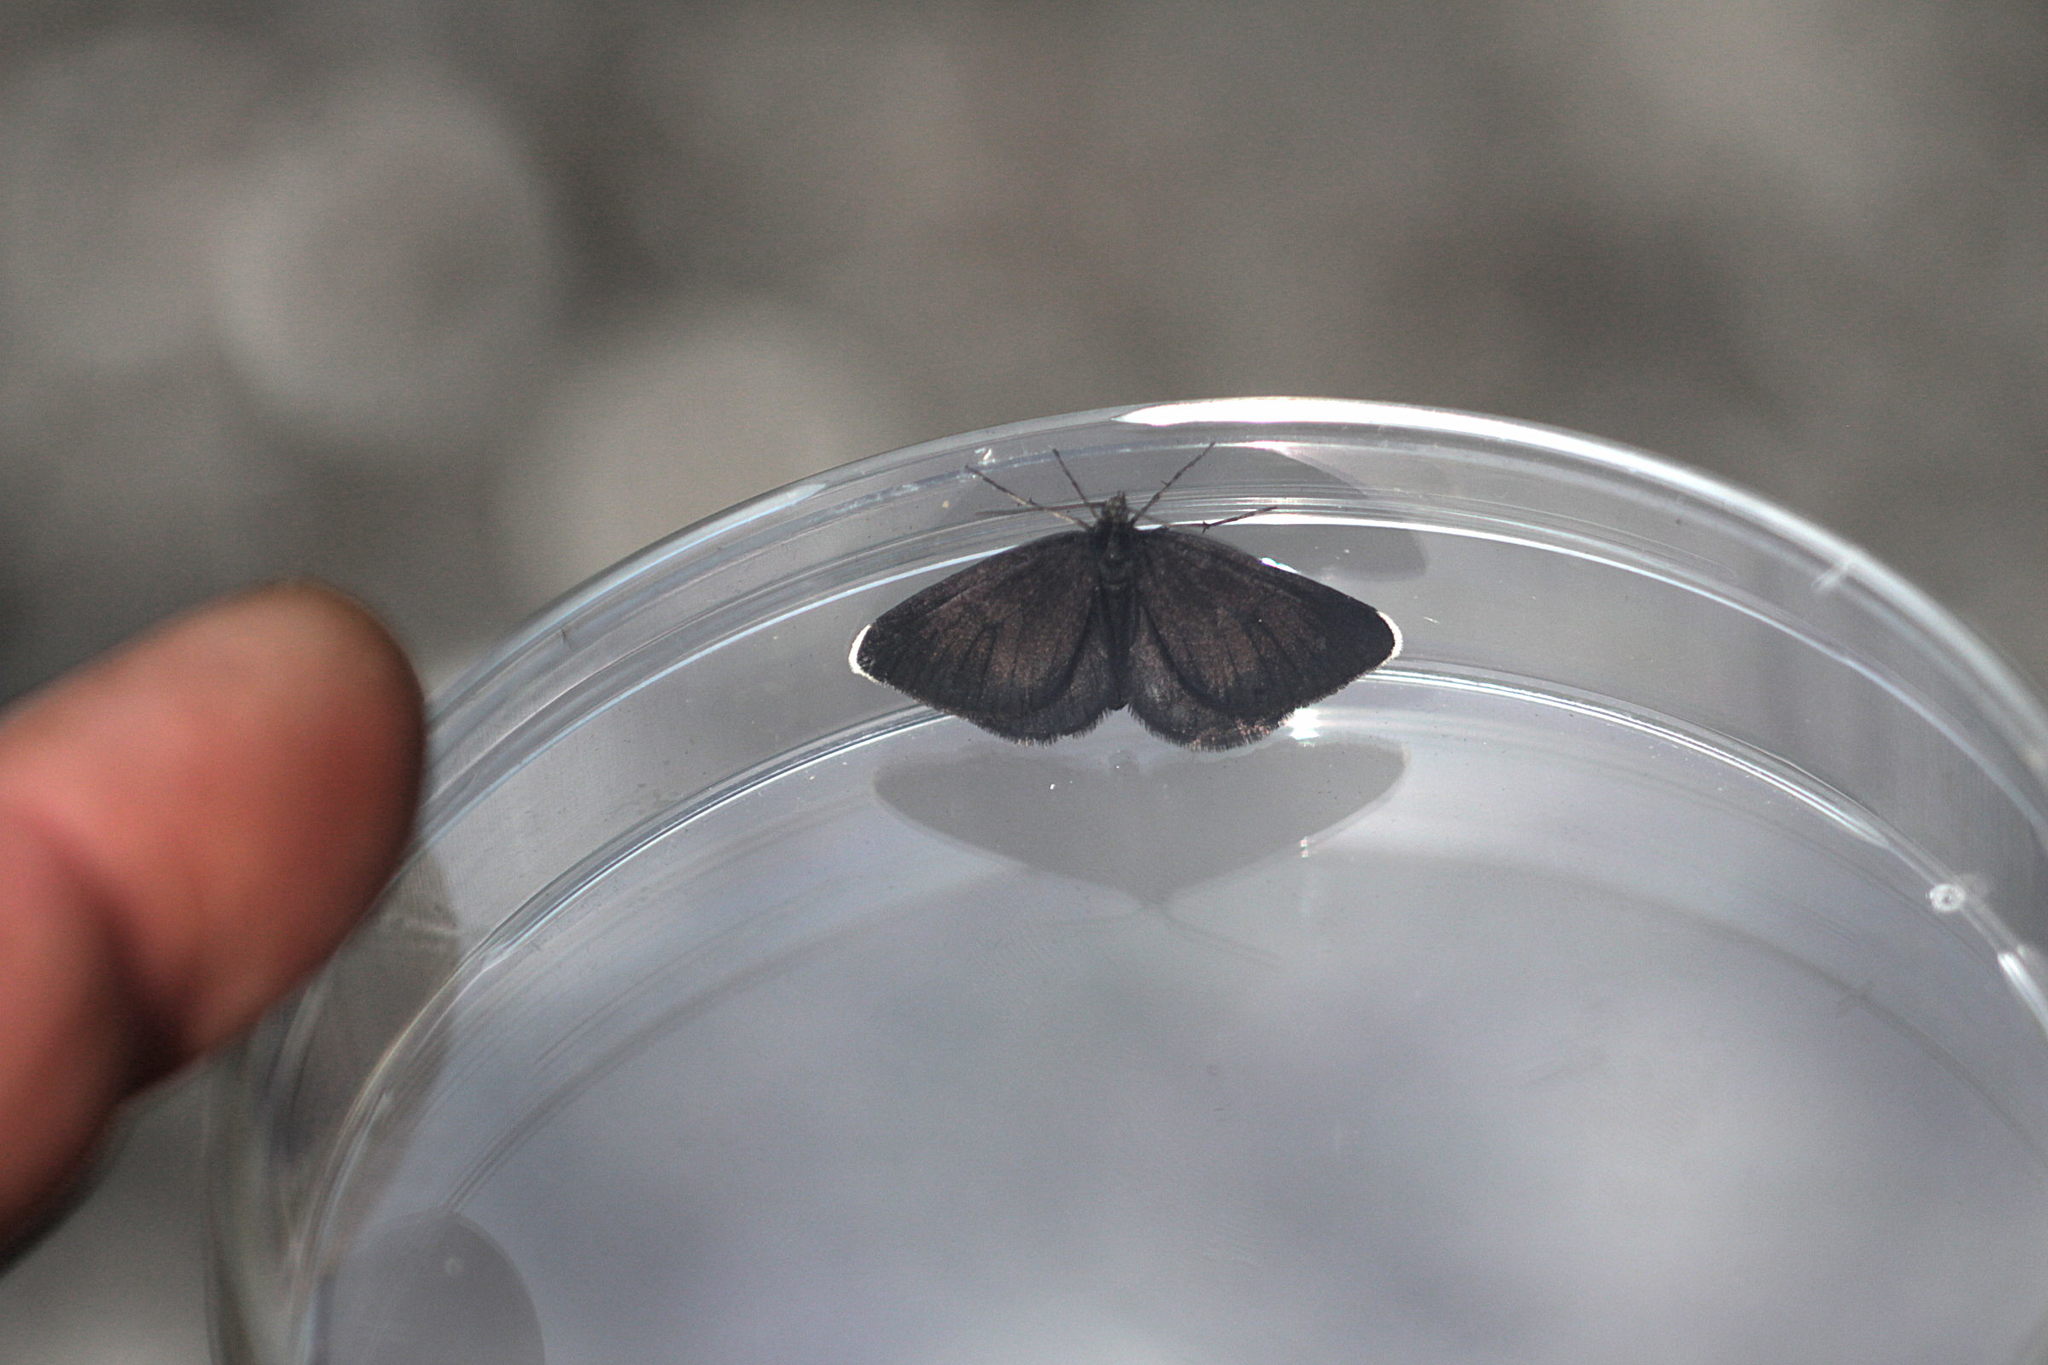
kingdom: Animalia
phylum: Arthropoda
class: Insecta
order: Lepidoptera
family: Geometridae
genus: Odezia
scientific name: Odezia atrata
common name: Chimney sweeper
